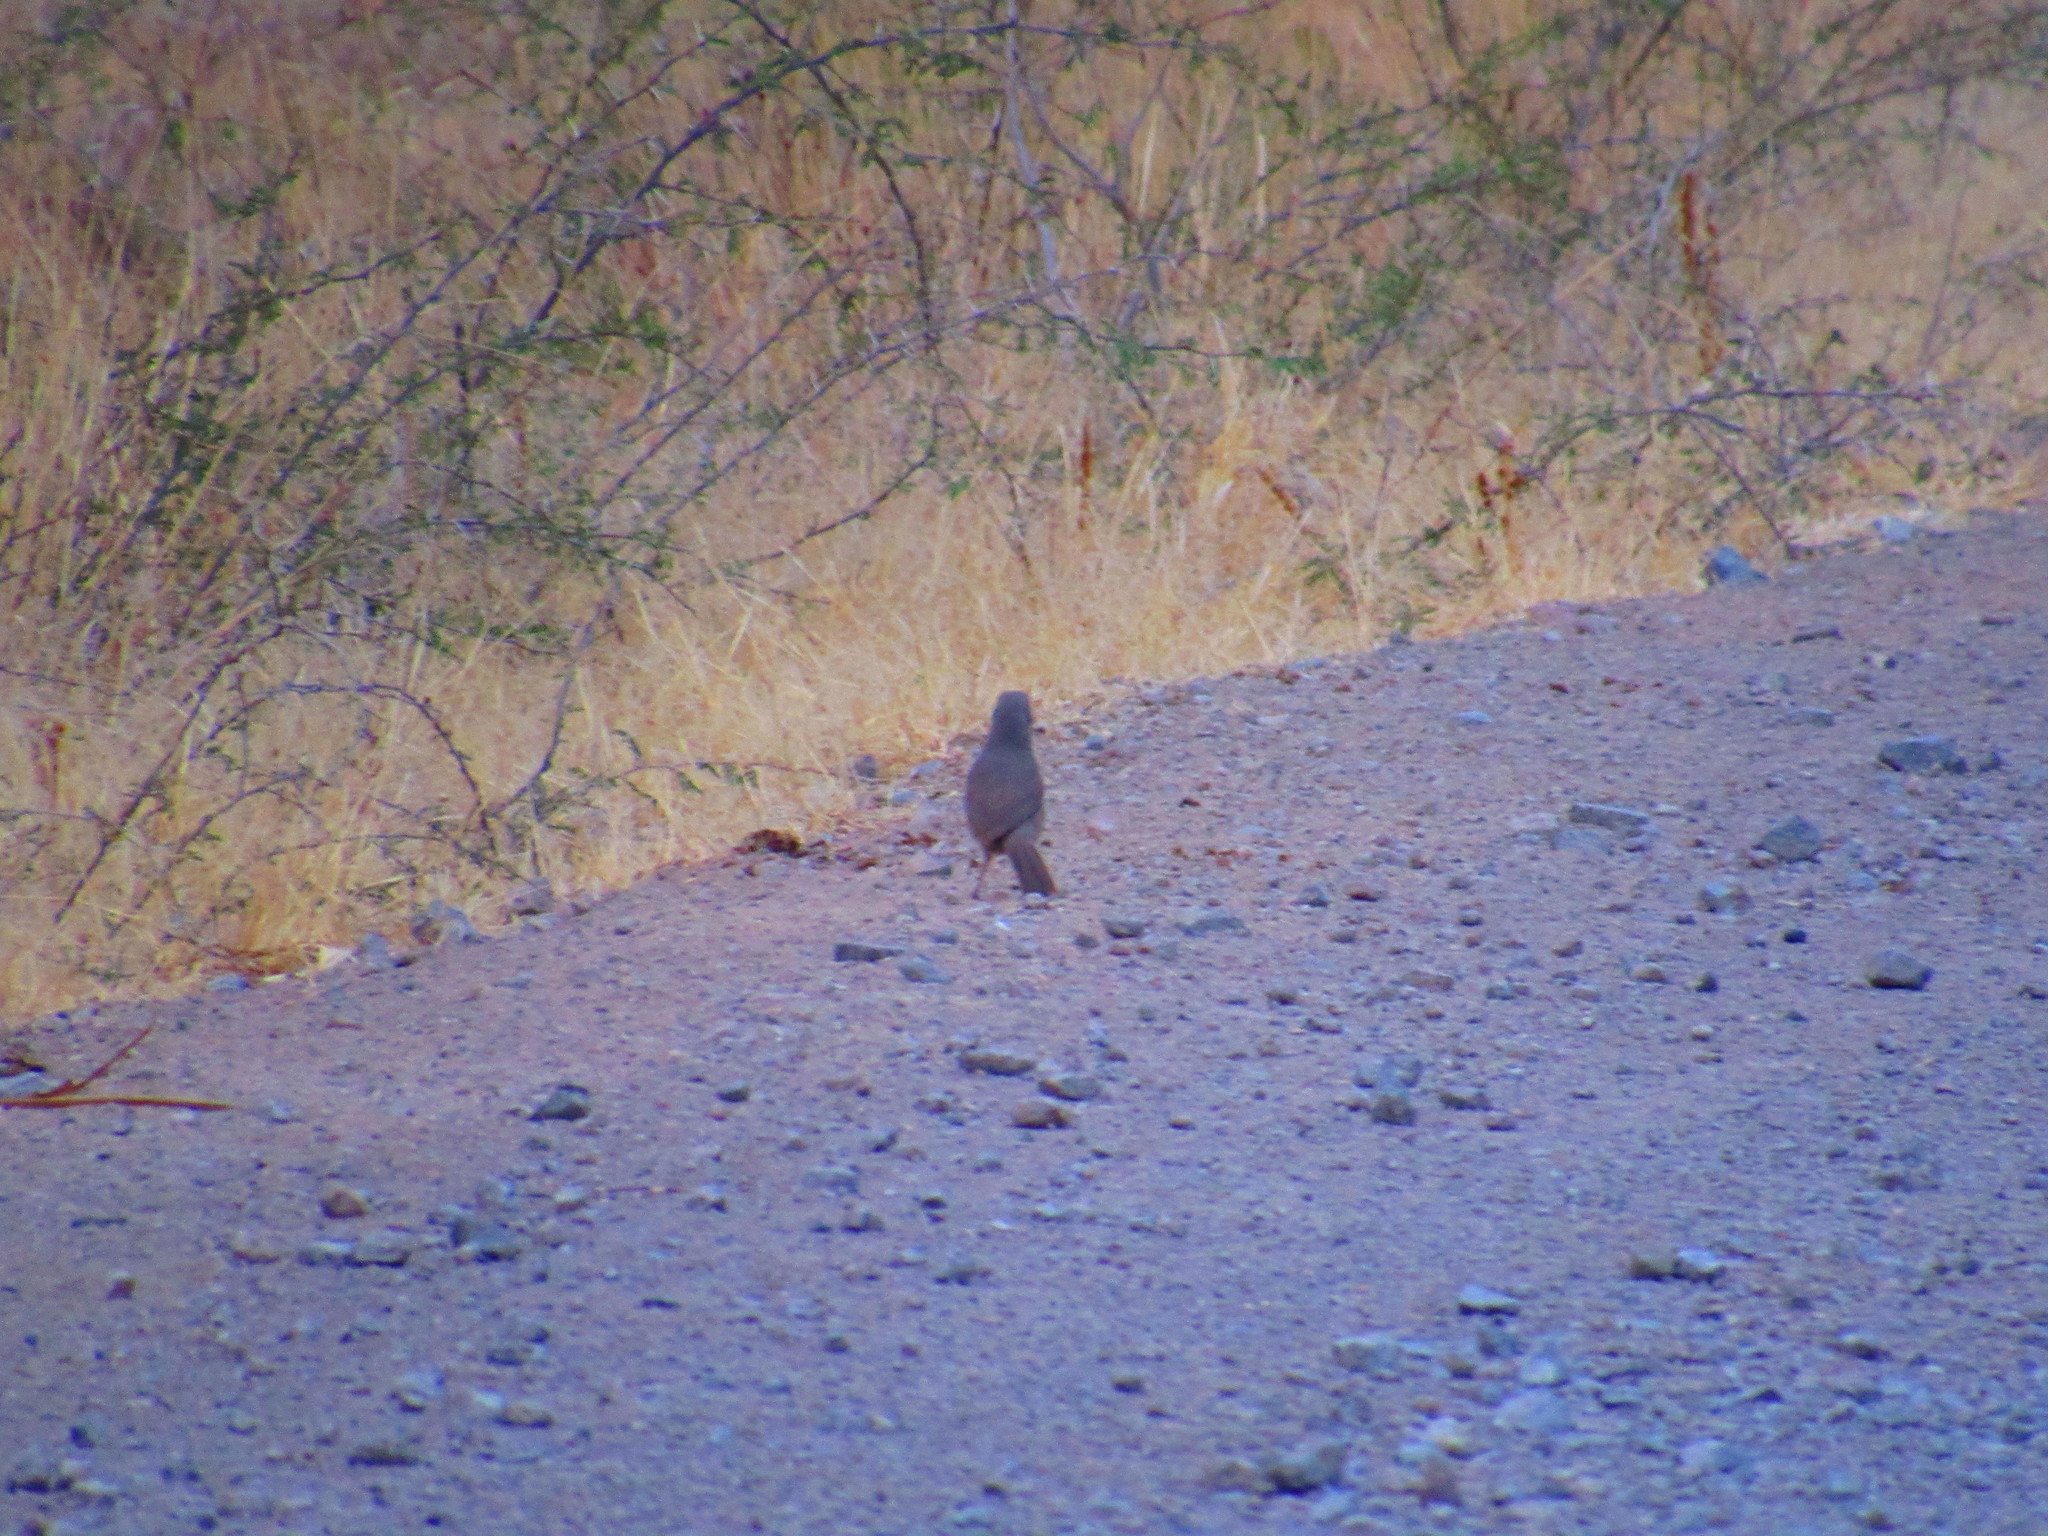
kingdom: Animalia
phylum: Chordata
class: Aves
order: Passeriformes
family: Mimidae
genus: Toxostoma
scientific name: Toxostoma curvirostre
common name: Curve-billed thrasher
